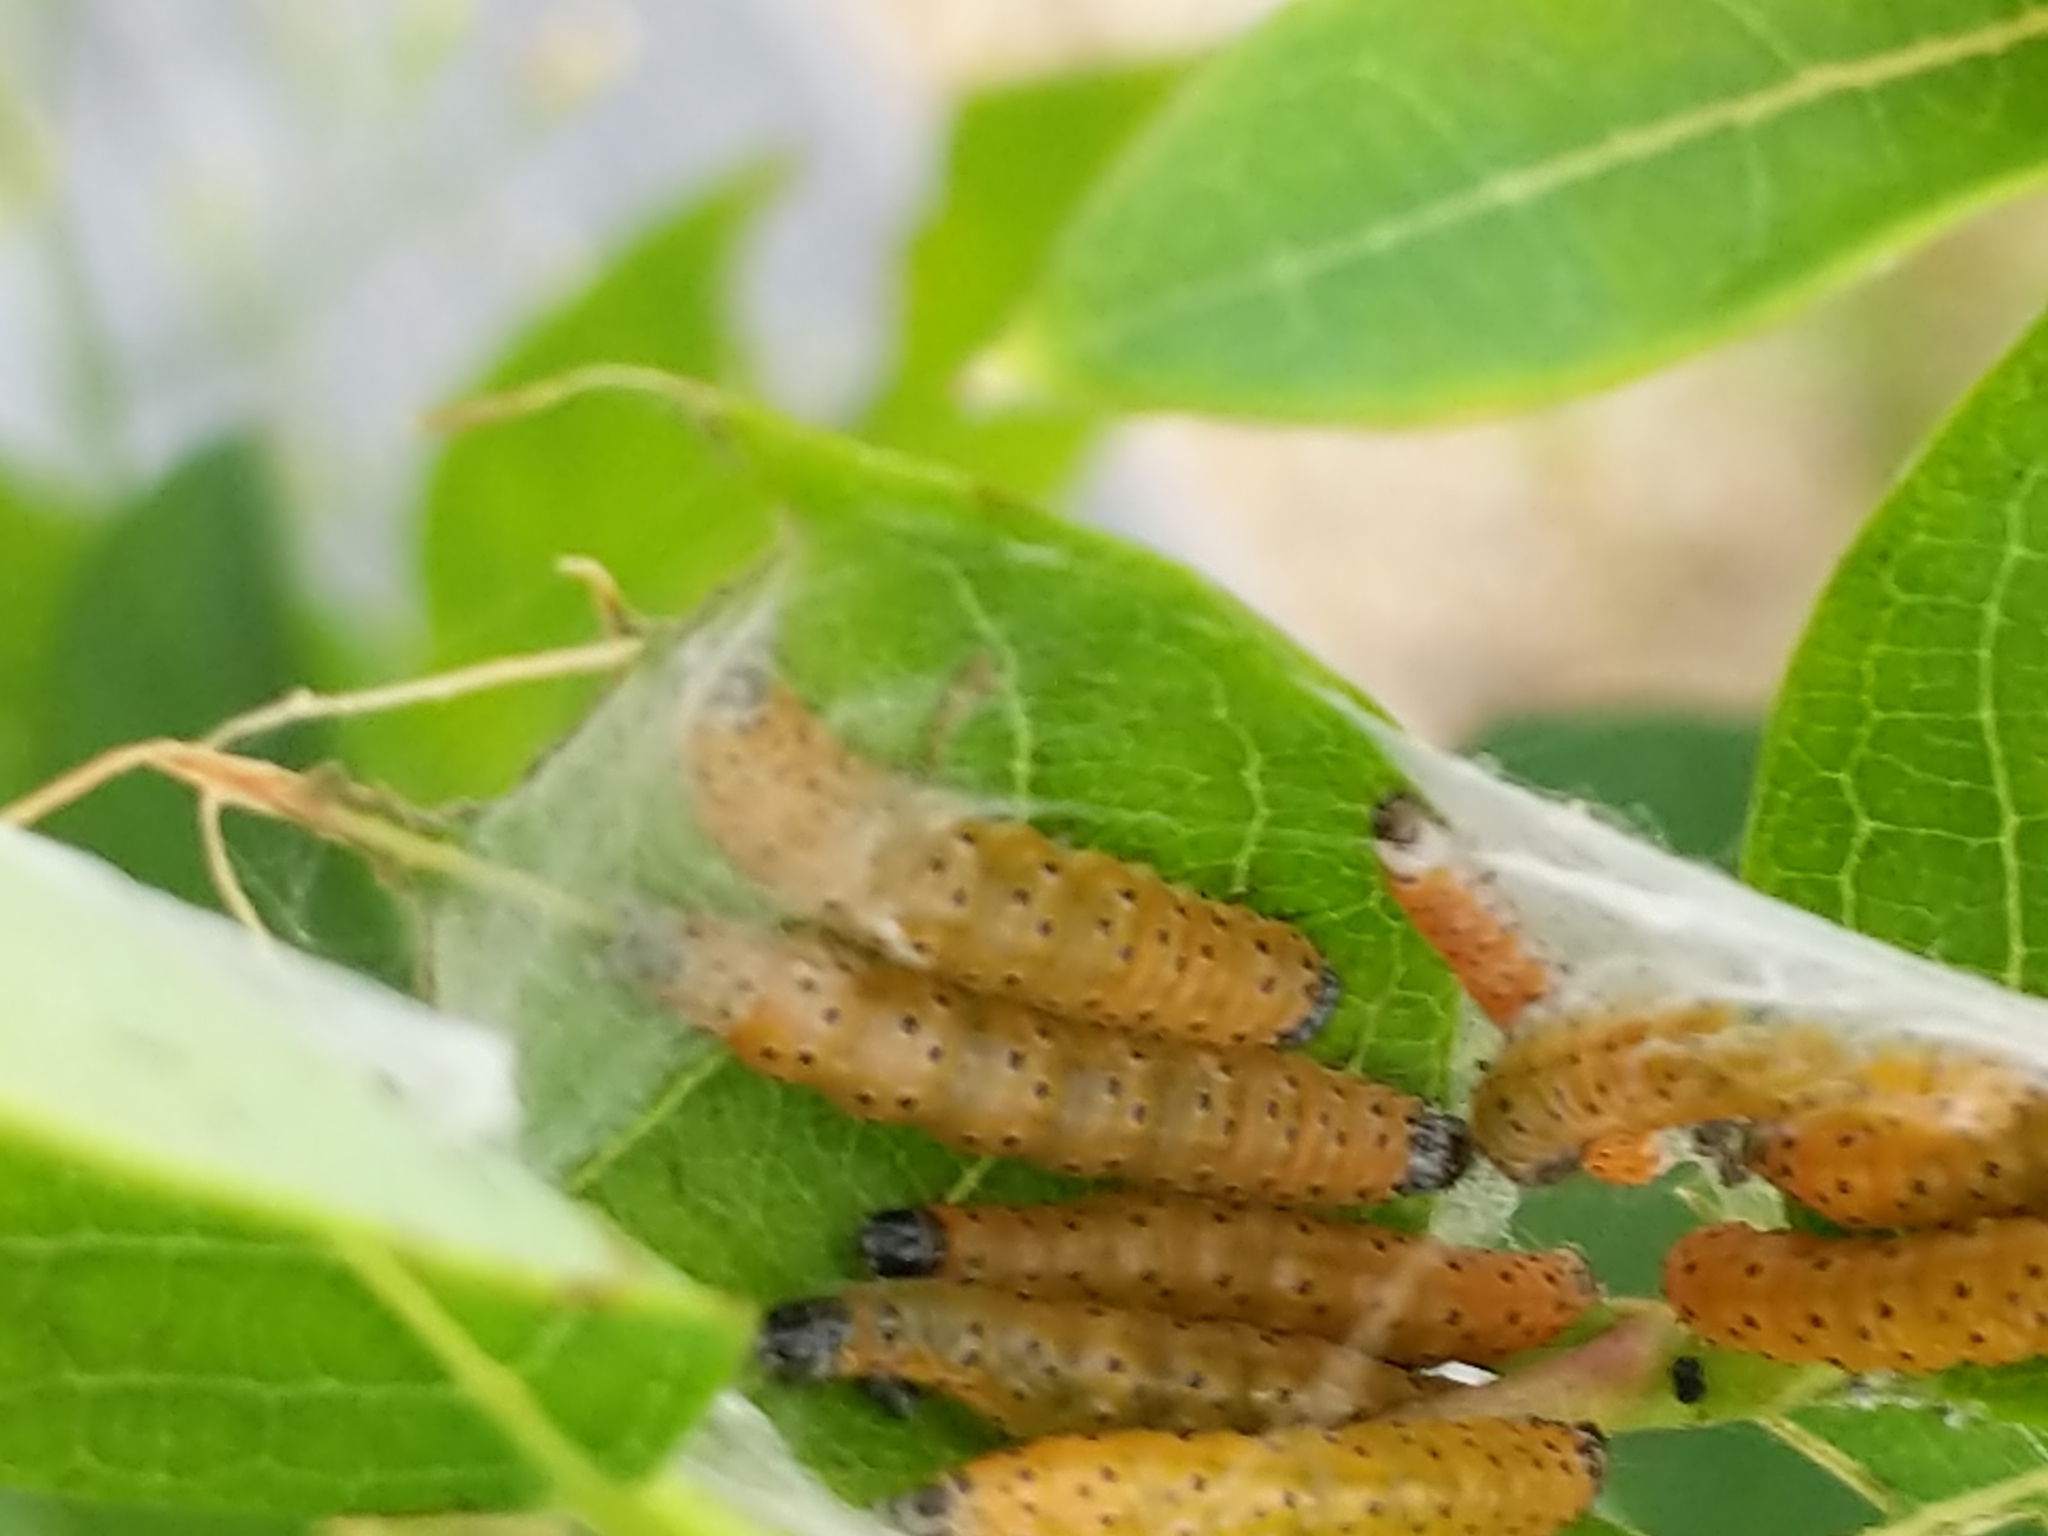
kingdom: Animalia
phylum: Arthropoda
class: Insecta
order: Lepidoptera
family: Crambidae
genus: Saucrobotys
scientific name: Saucrobotys futilalis
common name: Dogbane saucrobotys moth
